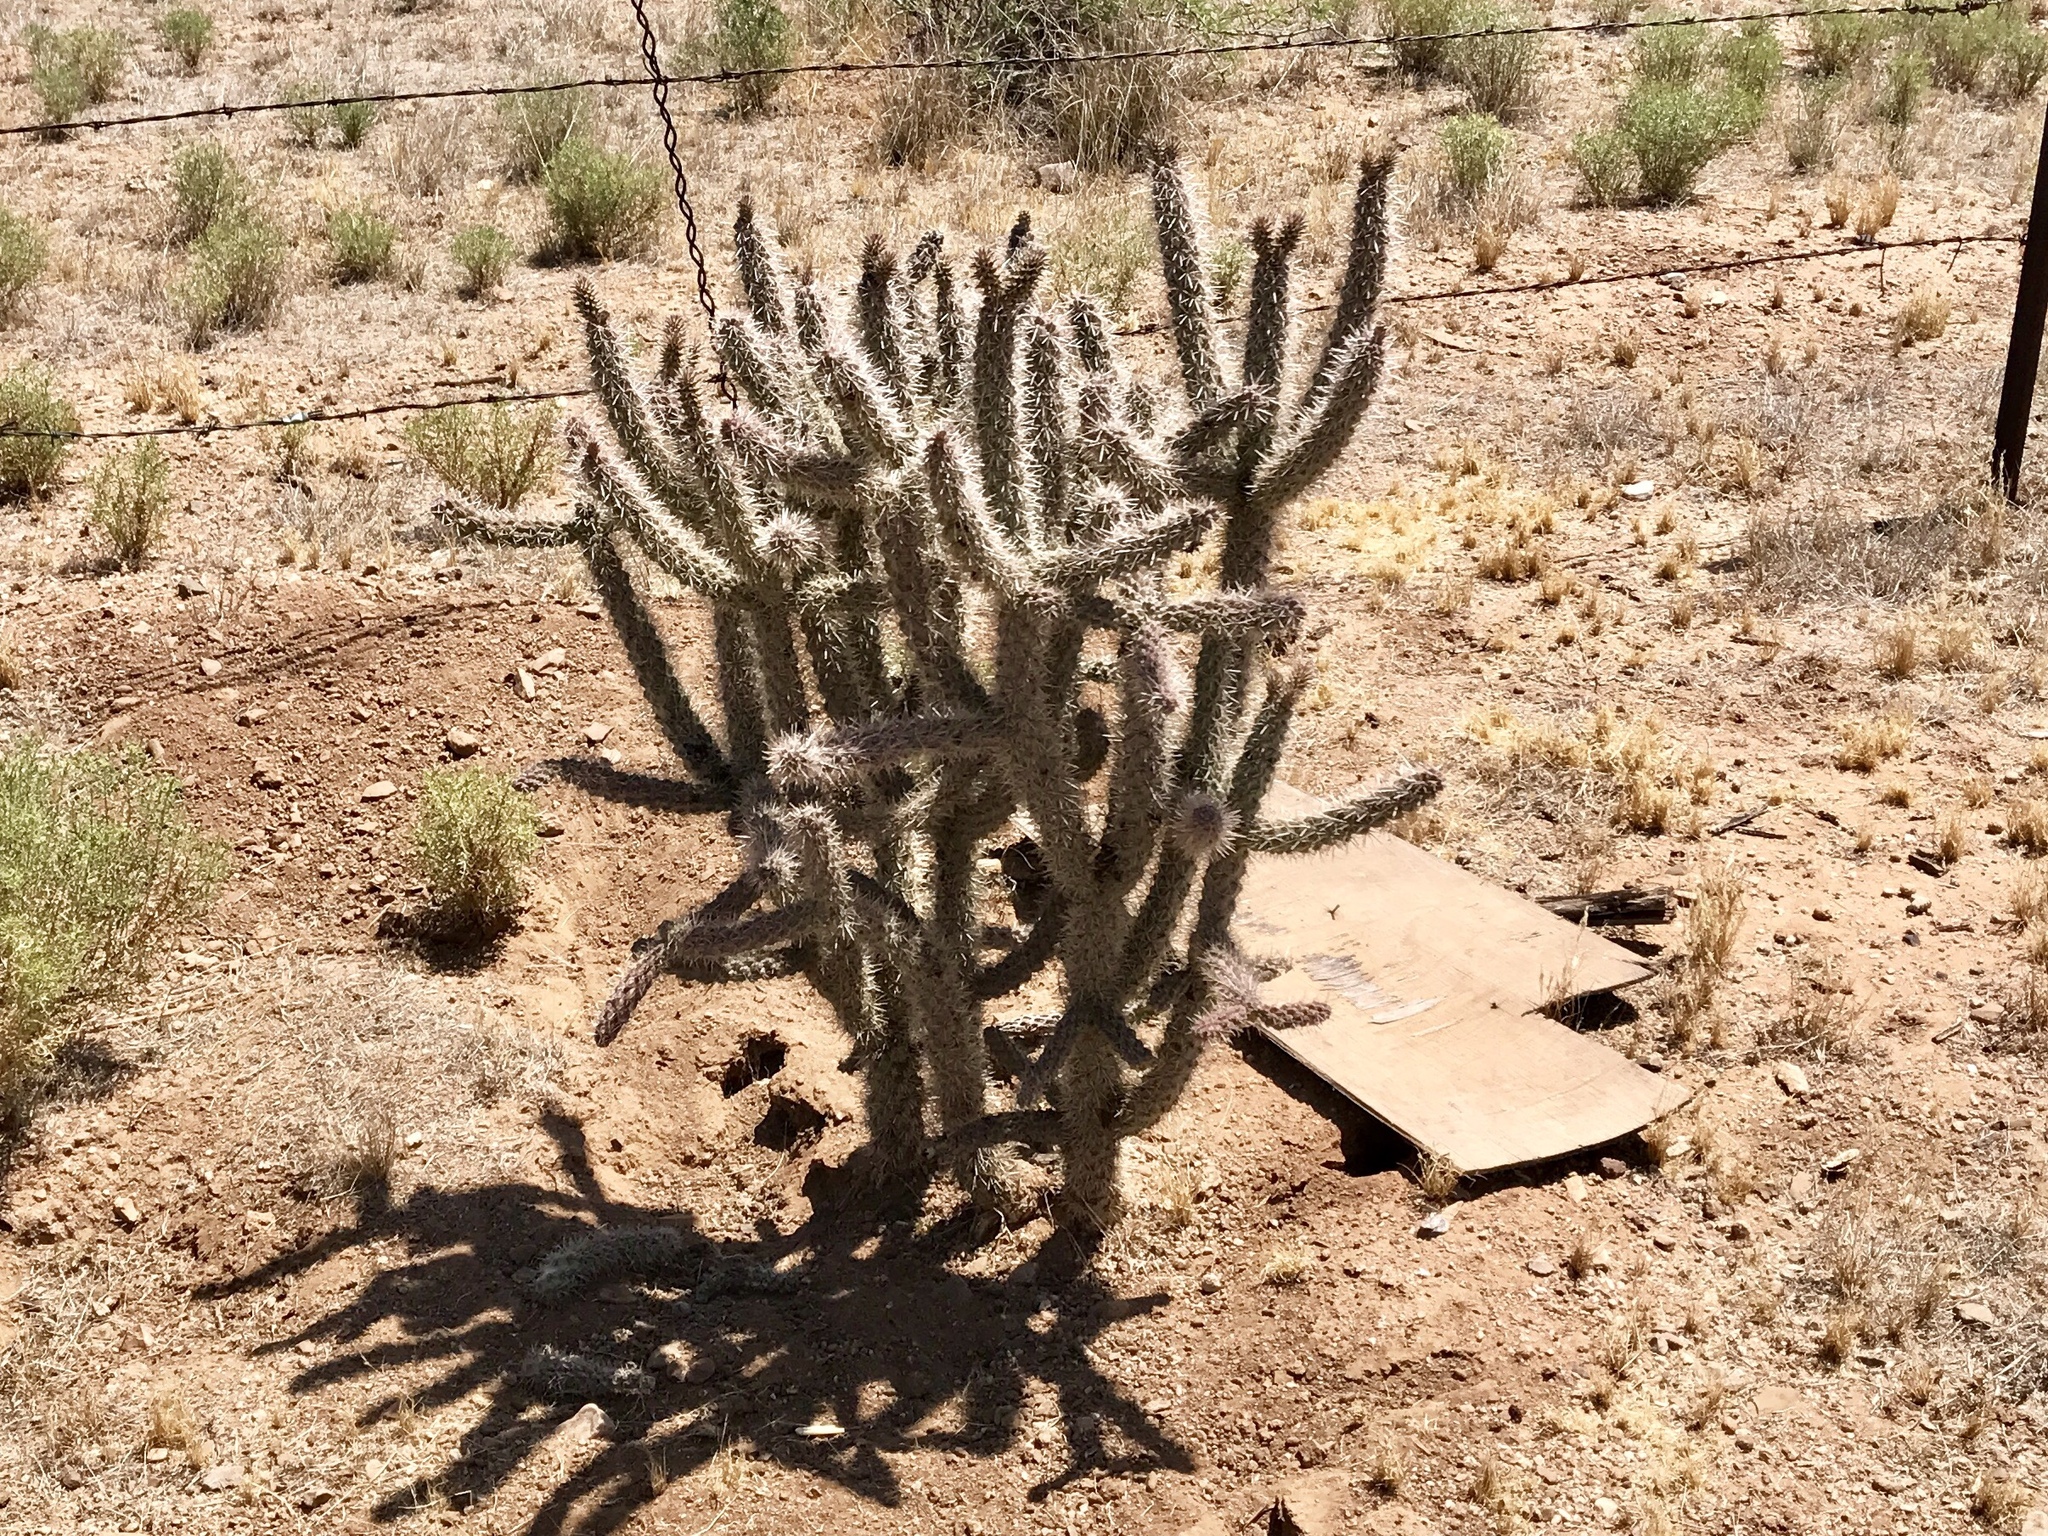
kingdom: Plantae
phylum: Tracheophyta
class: Magnoliopsida
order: Caryophyllales
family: Cactaceae
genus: Cylindropuntia
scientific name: Cylindropuntia imbricata
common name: Candelabrum cactus
